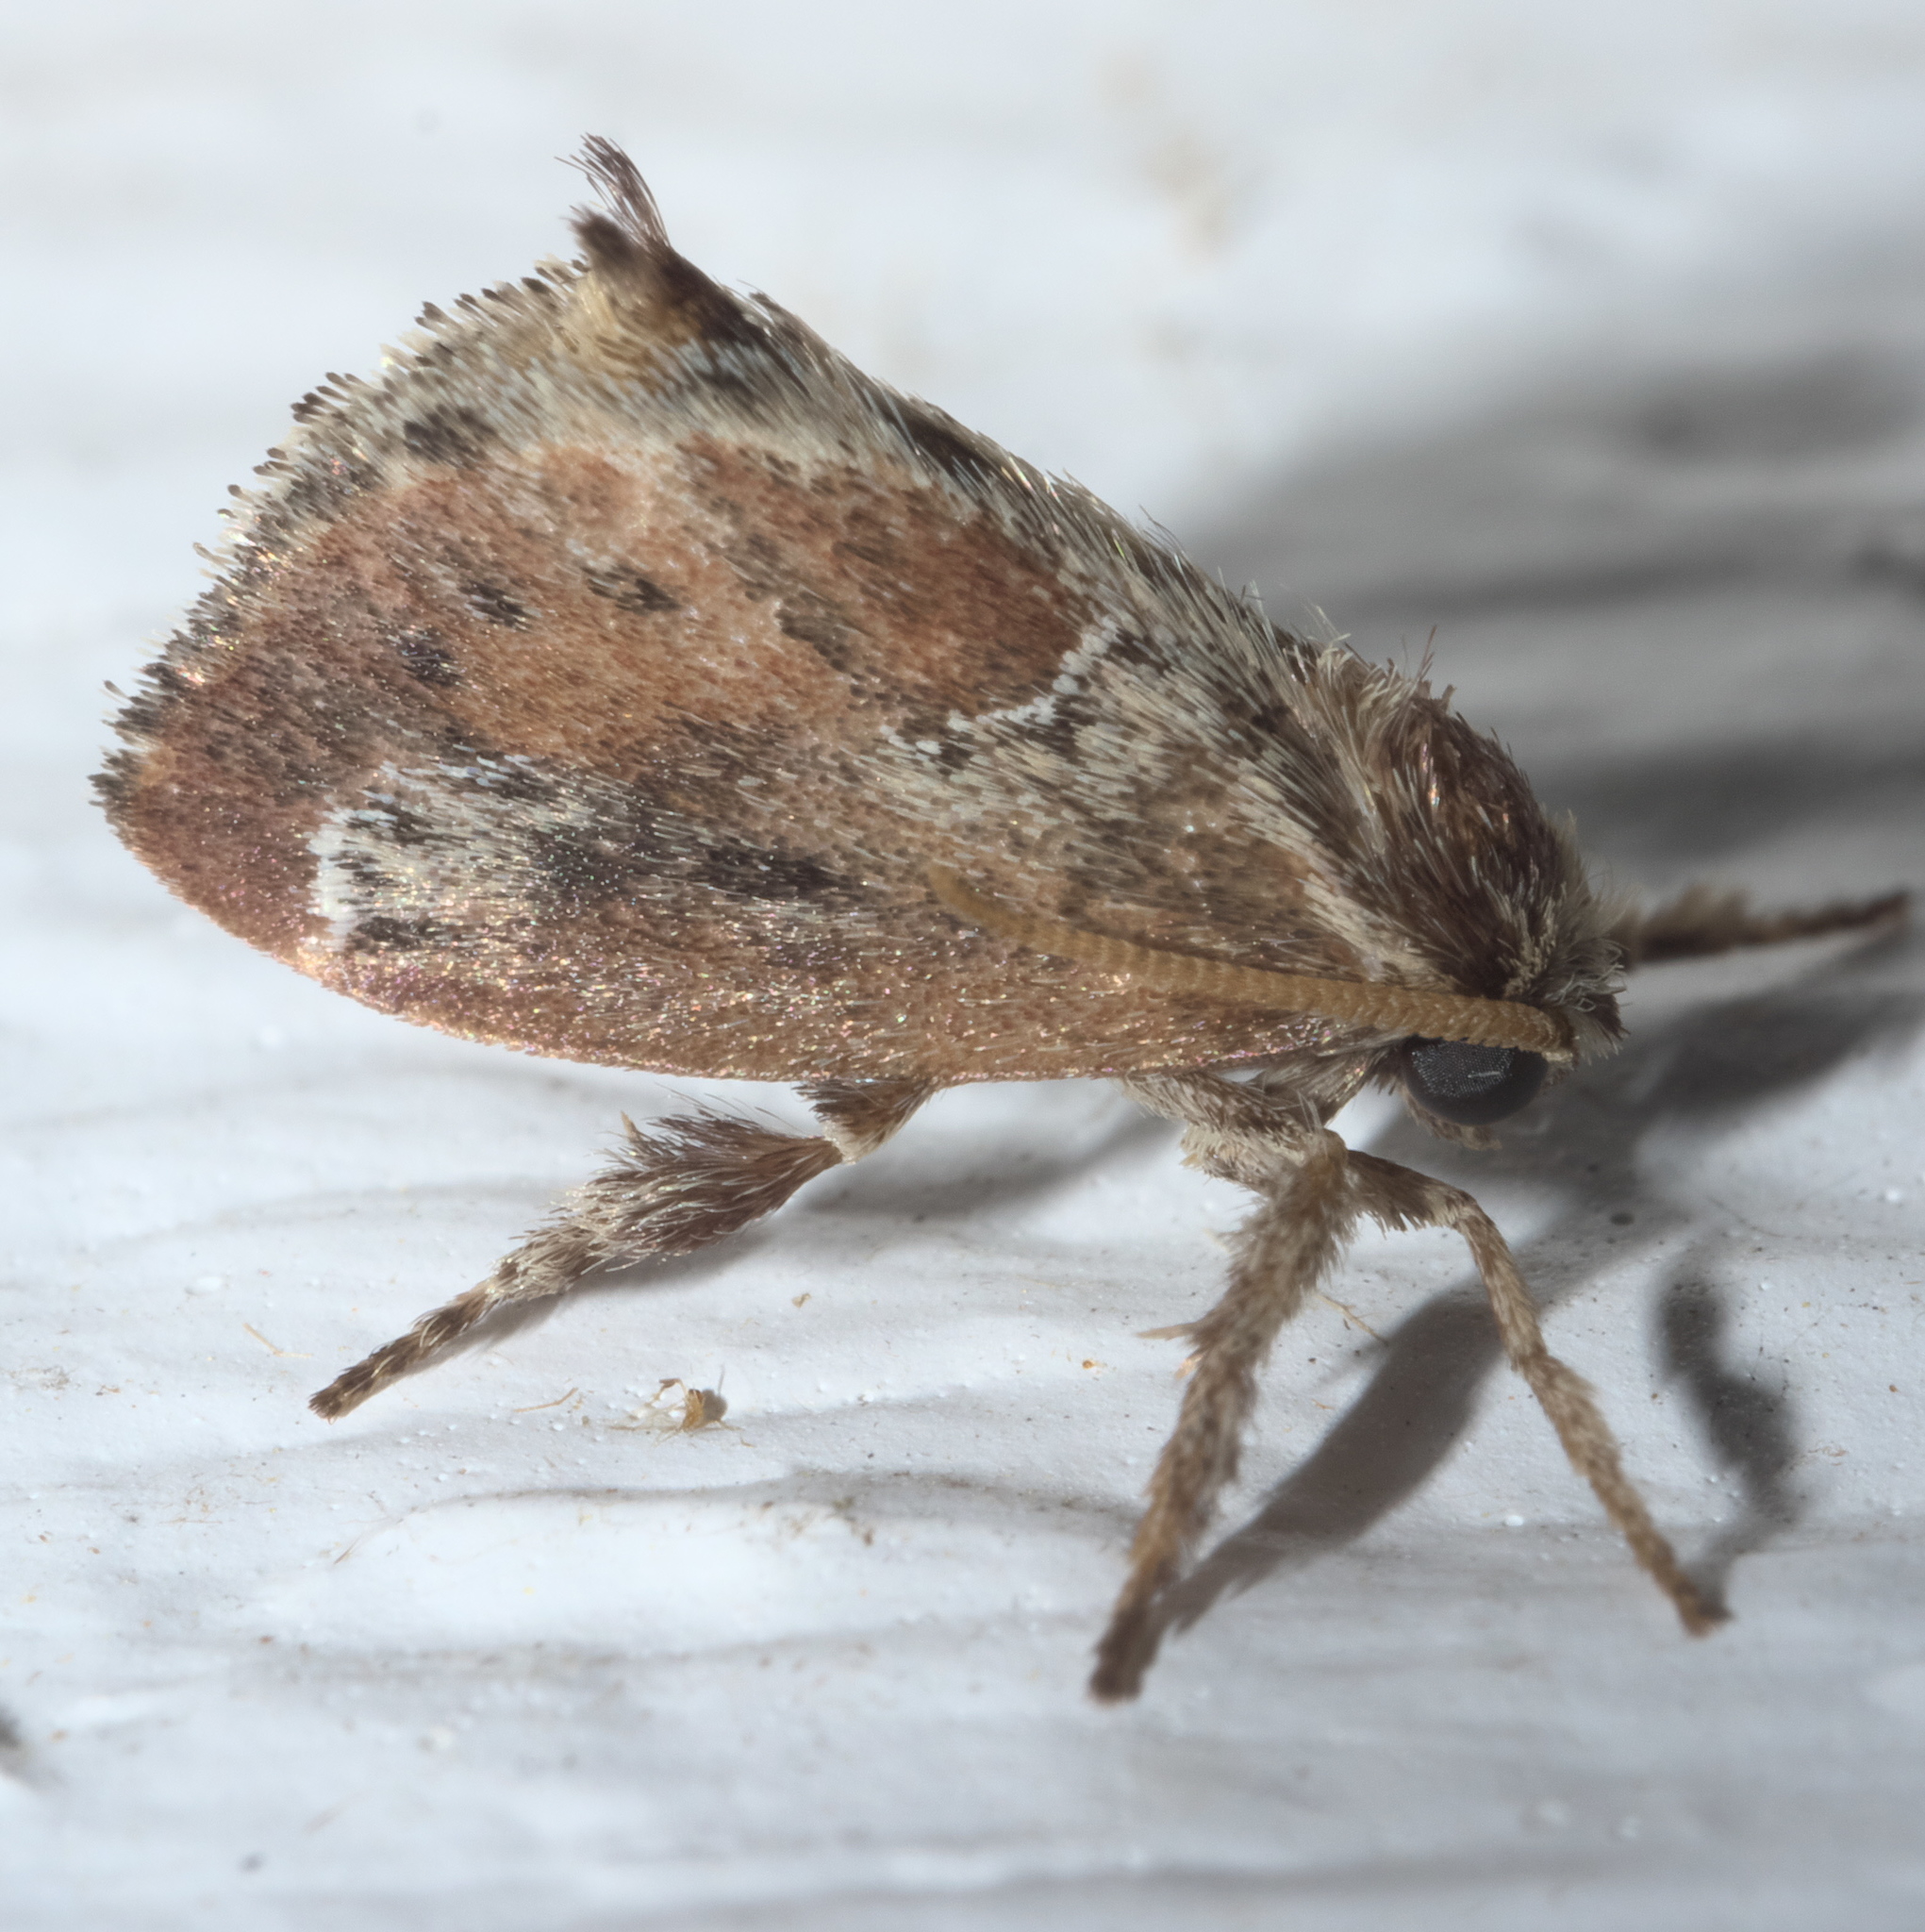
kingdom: Animalia
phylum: Arthropoda
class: Insecta
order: Lepidoptera
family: Limacodidae
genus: Adoneta
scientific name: Adoneta spinuloides
